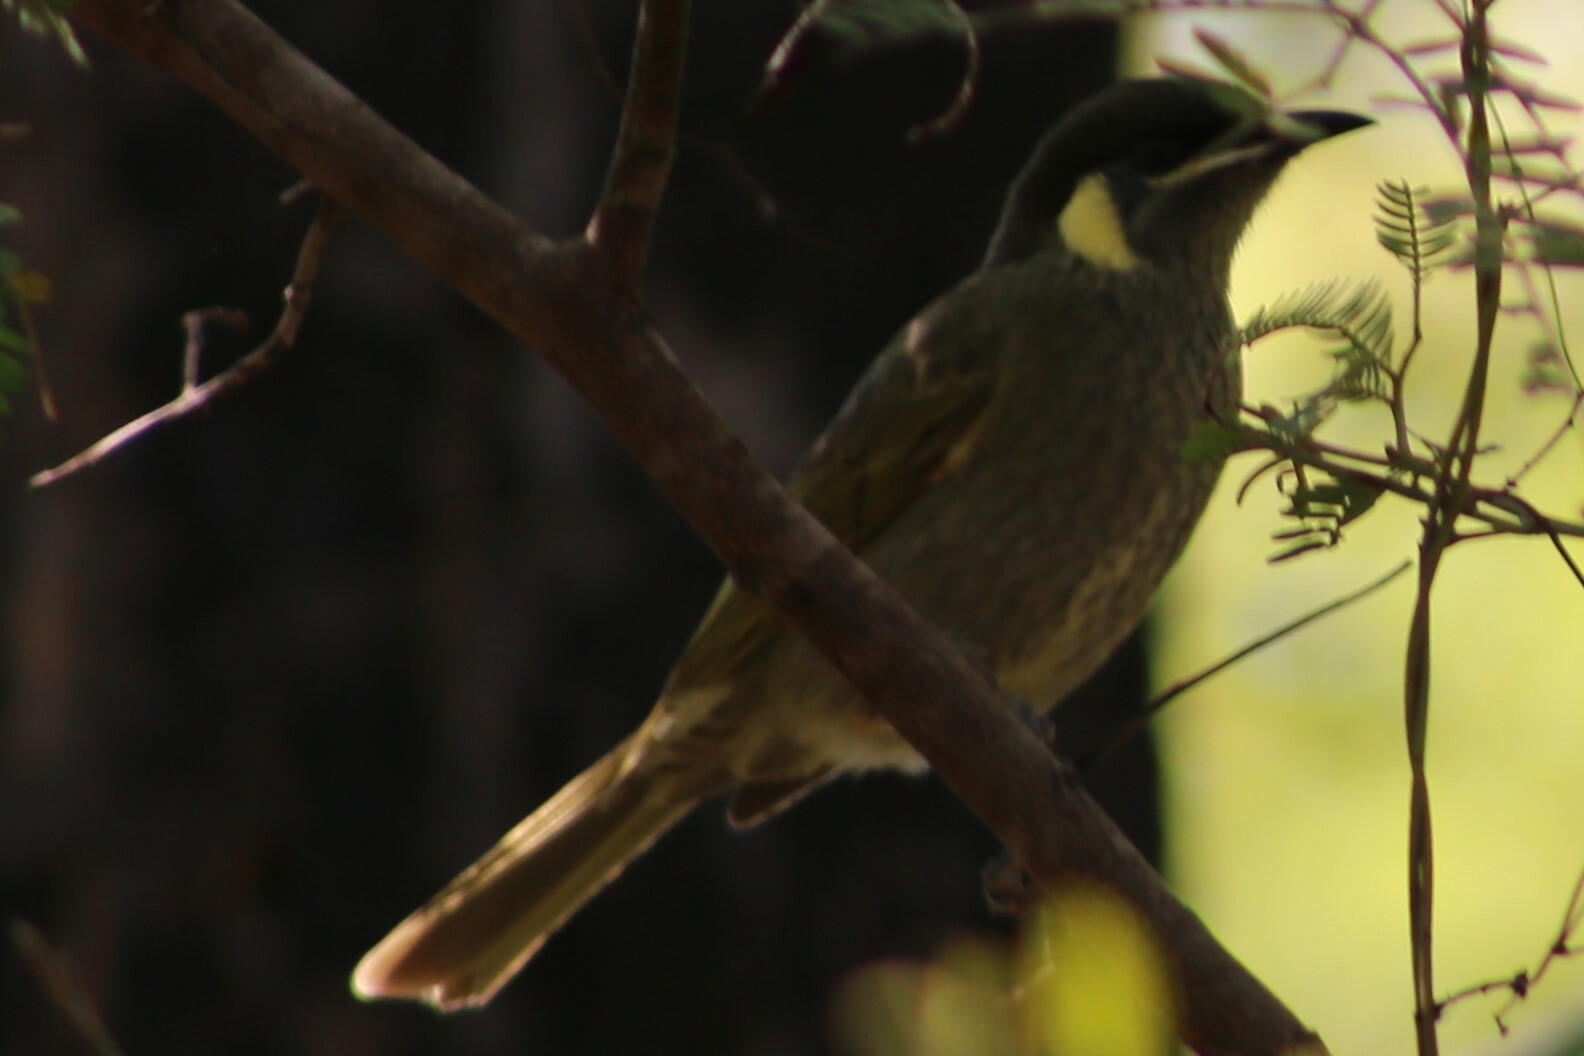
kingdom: Animalia
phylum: Chordata
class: Aves
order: Passeriformes
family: Meliphagidae
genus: Meliphaga
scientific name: Meliphaga lewinii
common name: Lewin's honeyeater
